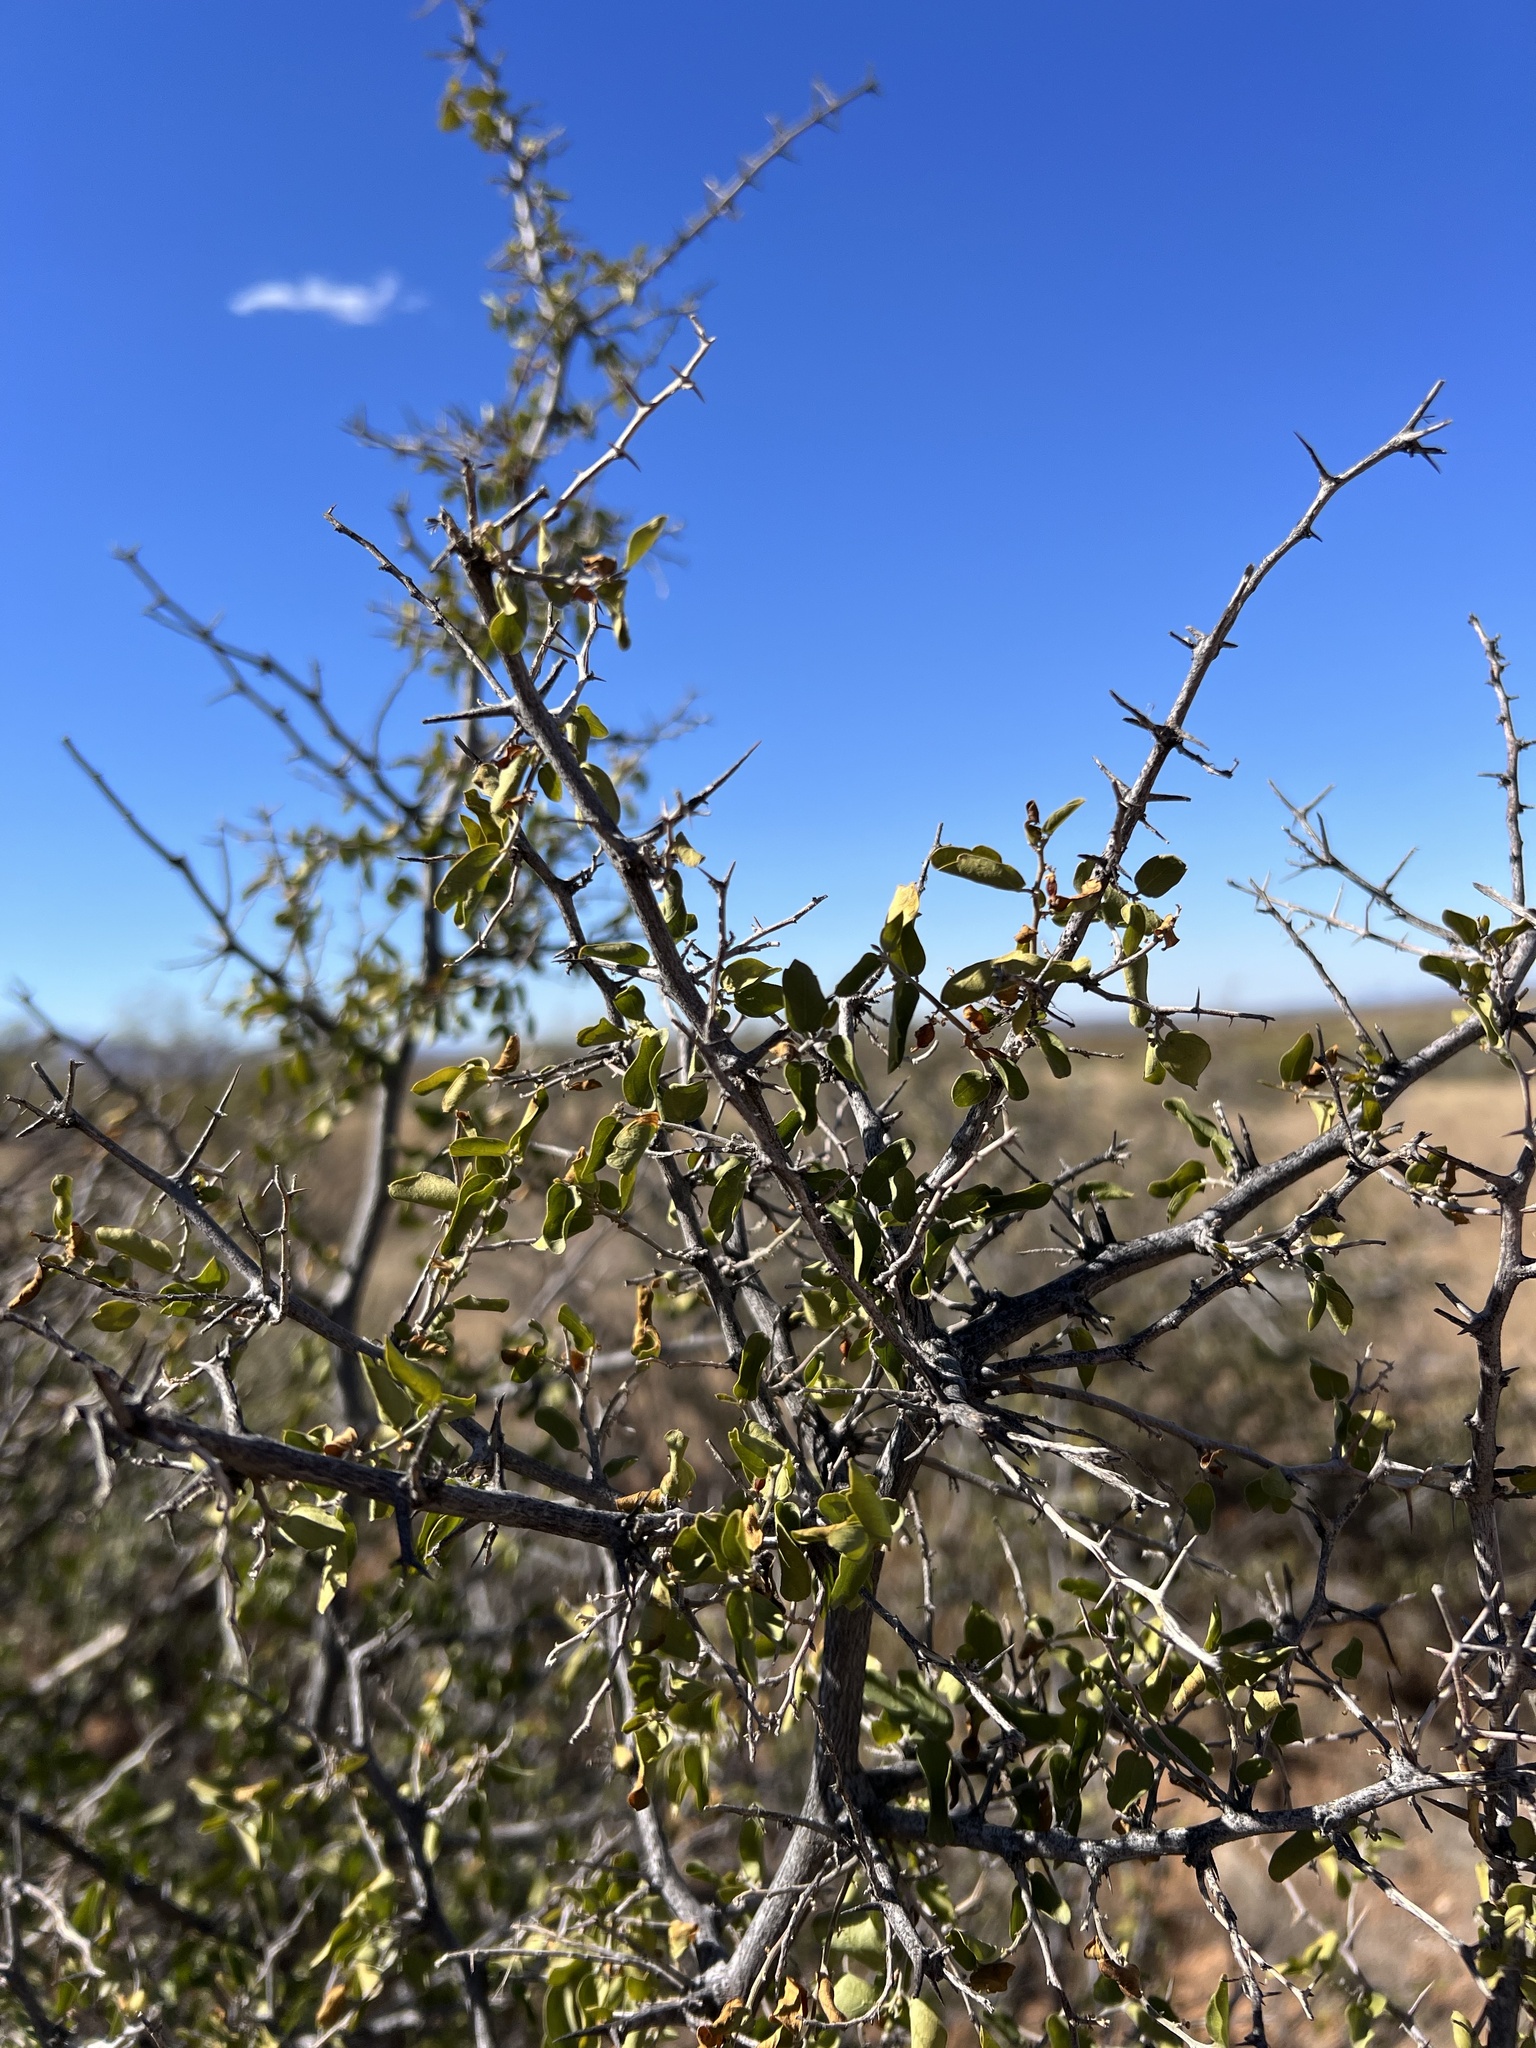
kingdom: Plantae
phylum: Tracheophyta
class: Magnoliopsida
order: Rosales
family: Cannabaceae
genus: Celtis
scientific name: Celtis pallida
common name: Desert hackberry
